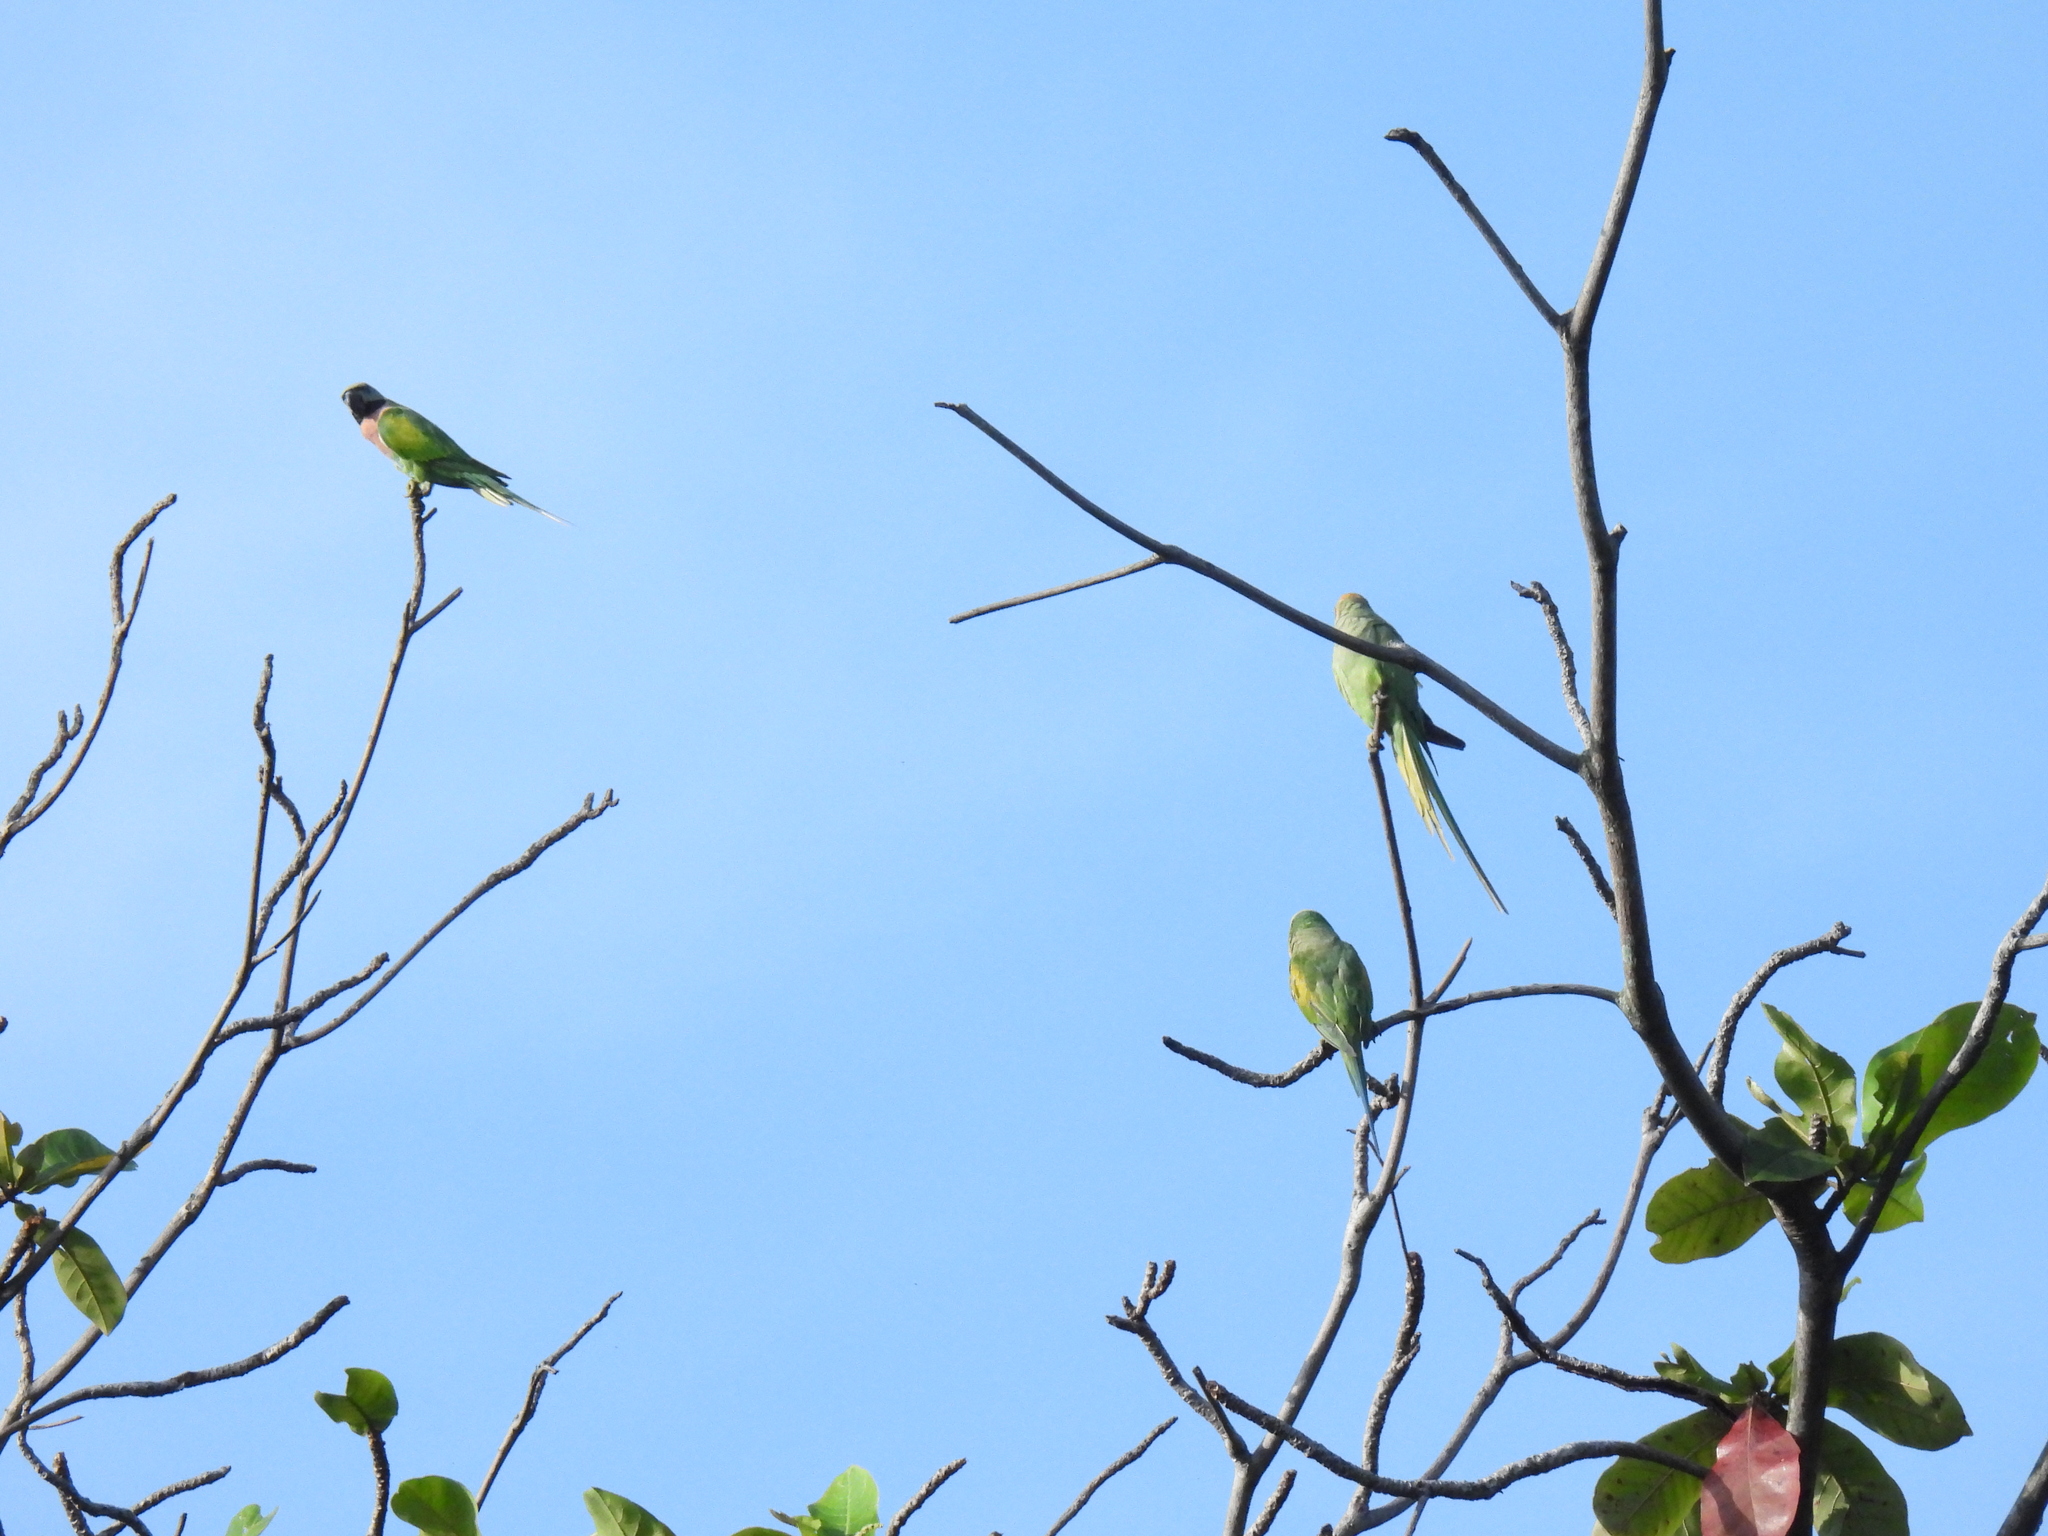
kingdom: Animalia
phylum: Chordata
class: Aves
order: Psittaciformes
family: Psittacidae
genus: Psittacula
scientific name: Psittacula alexandri
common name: Red-breasted parakeet
